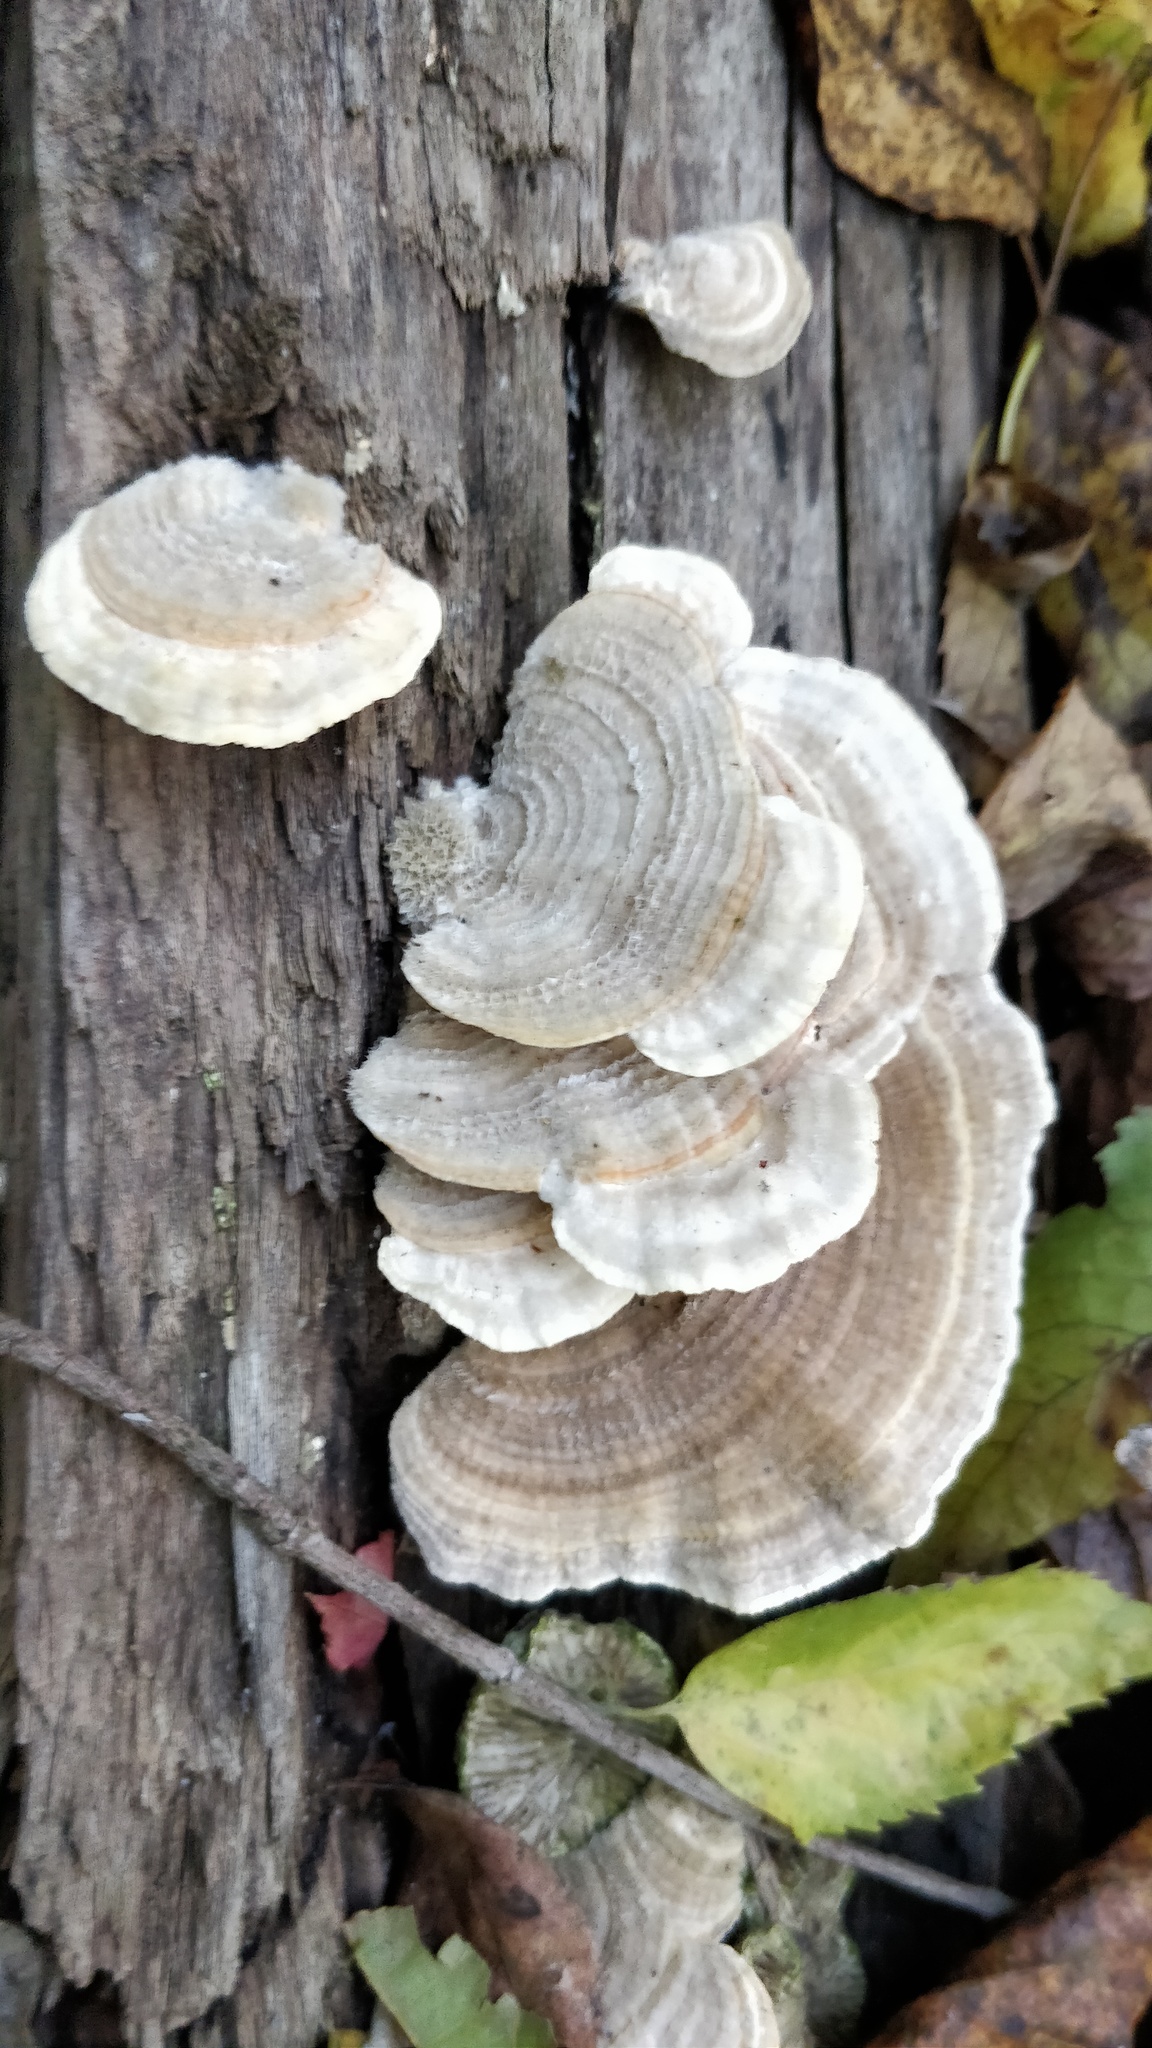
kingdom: Fungi
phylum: Basidiomycota
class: Agaricomycetes
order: Polyporales
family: Polyporaceae
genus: Lenzites
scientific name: Lenzites betulinus
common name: Birch mazegill
